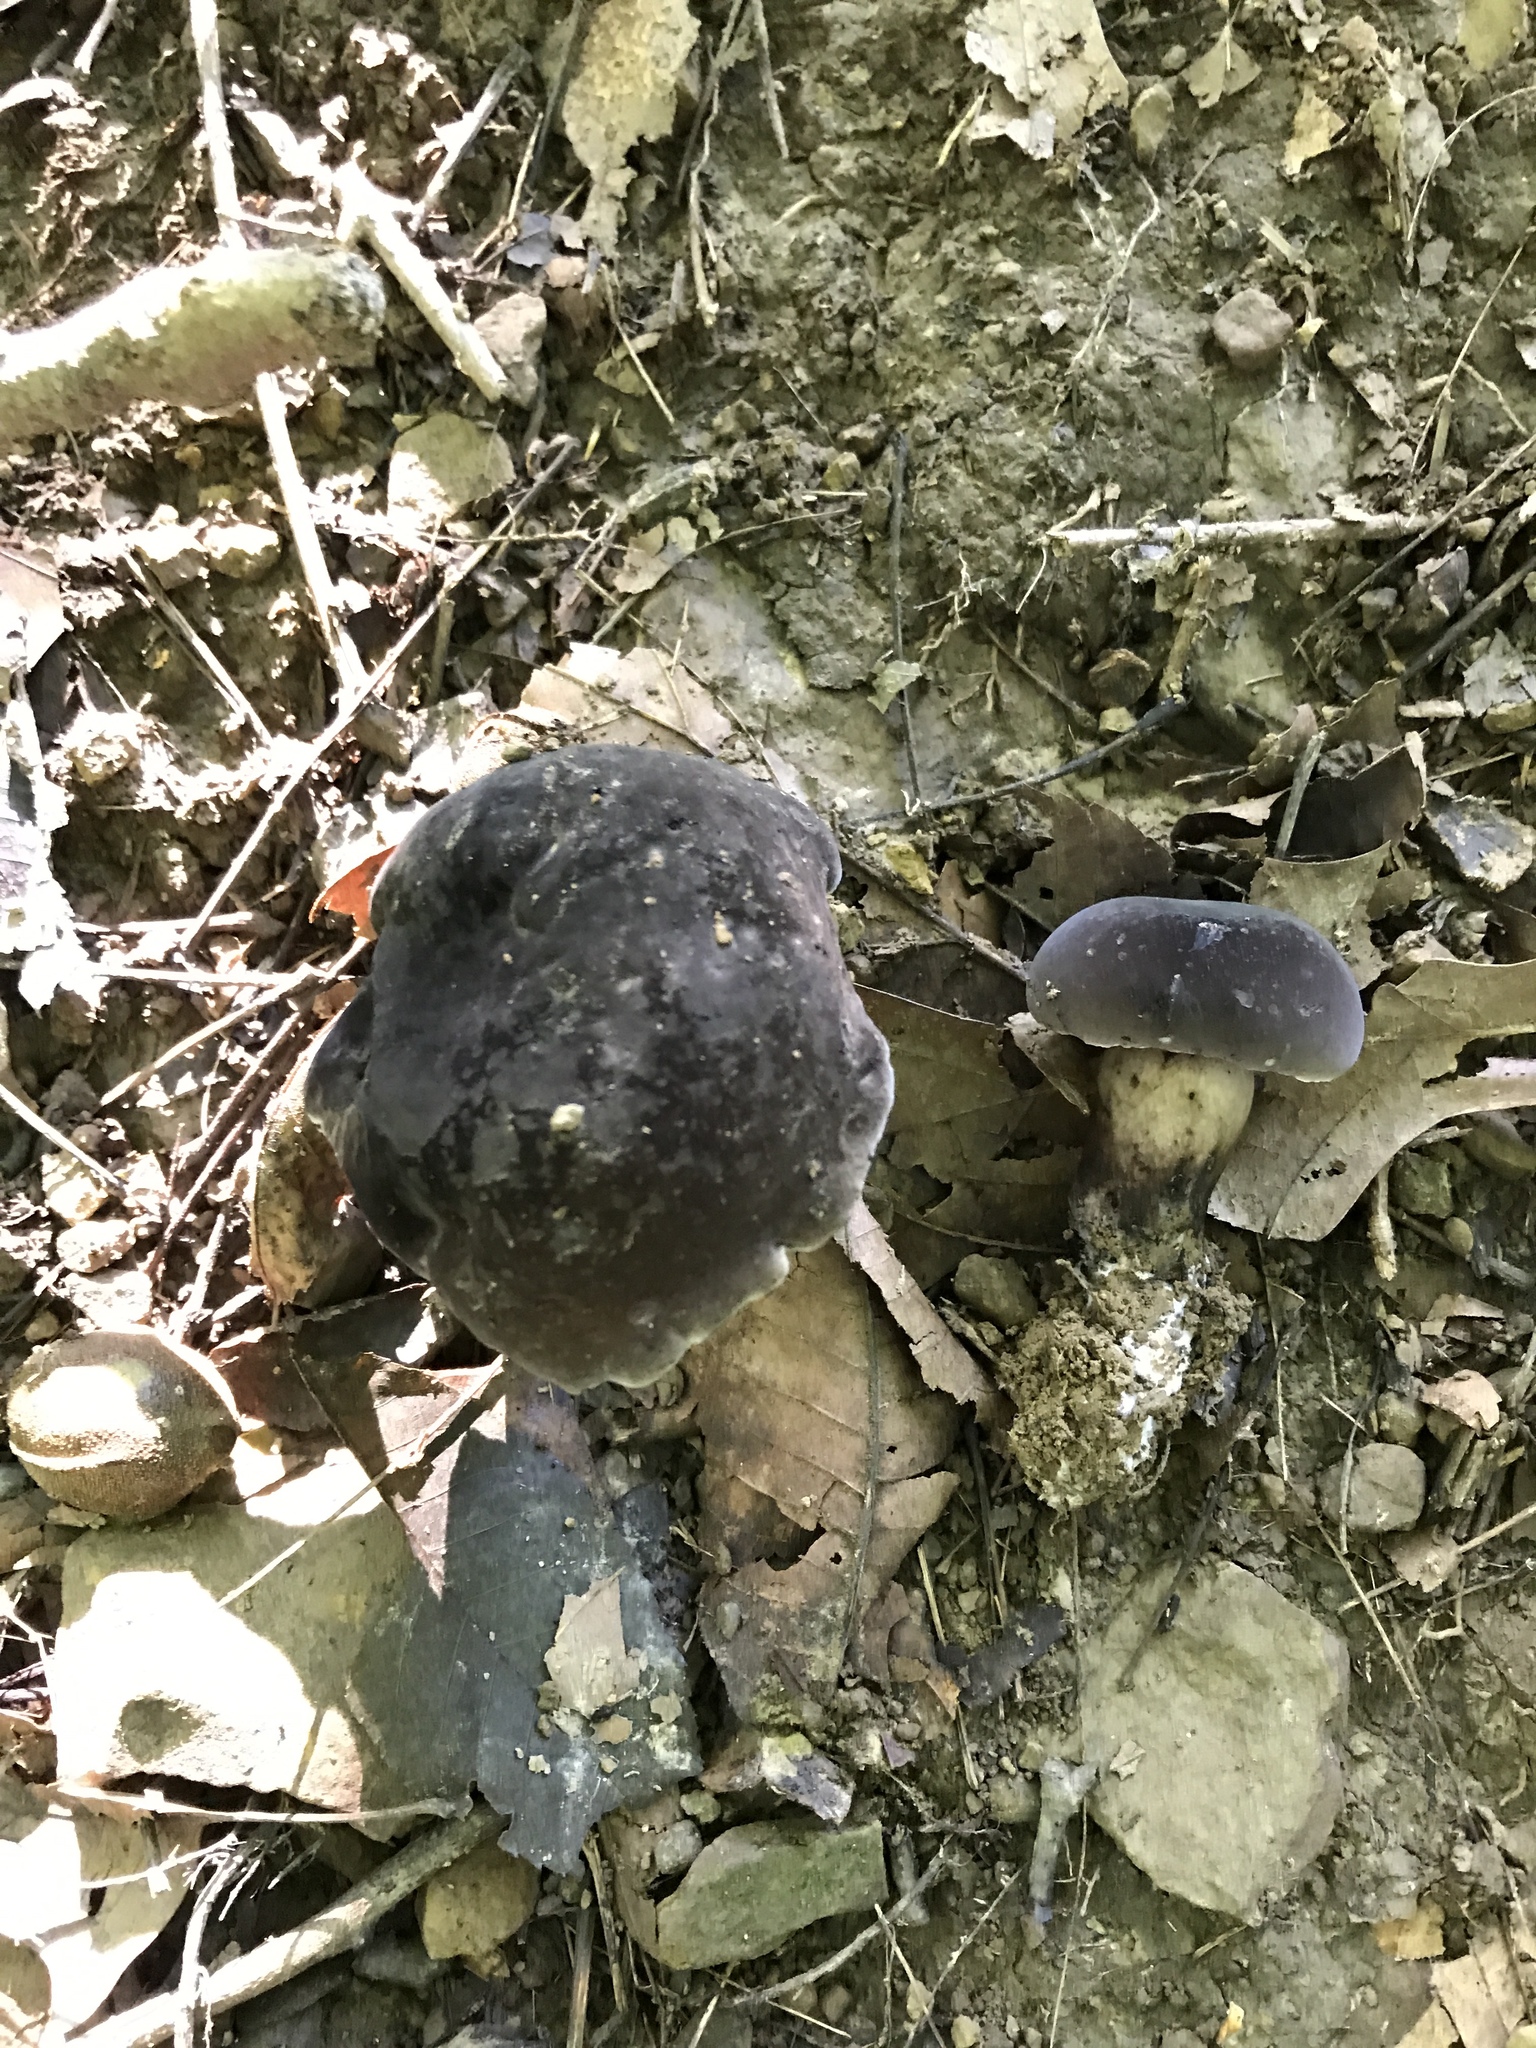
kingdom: Fungi
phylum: Basidiomycota
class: Agaricomycetes
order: Boletales
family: Boletaceae
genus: Tylopilus
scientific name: Tylopilus alboater
